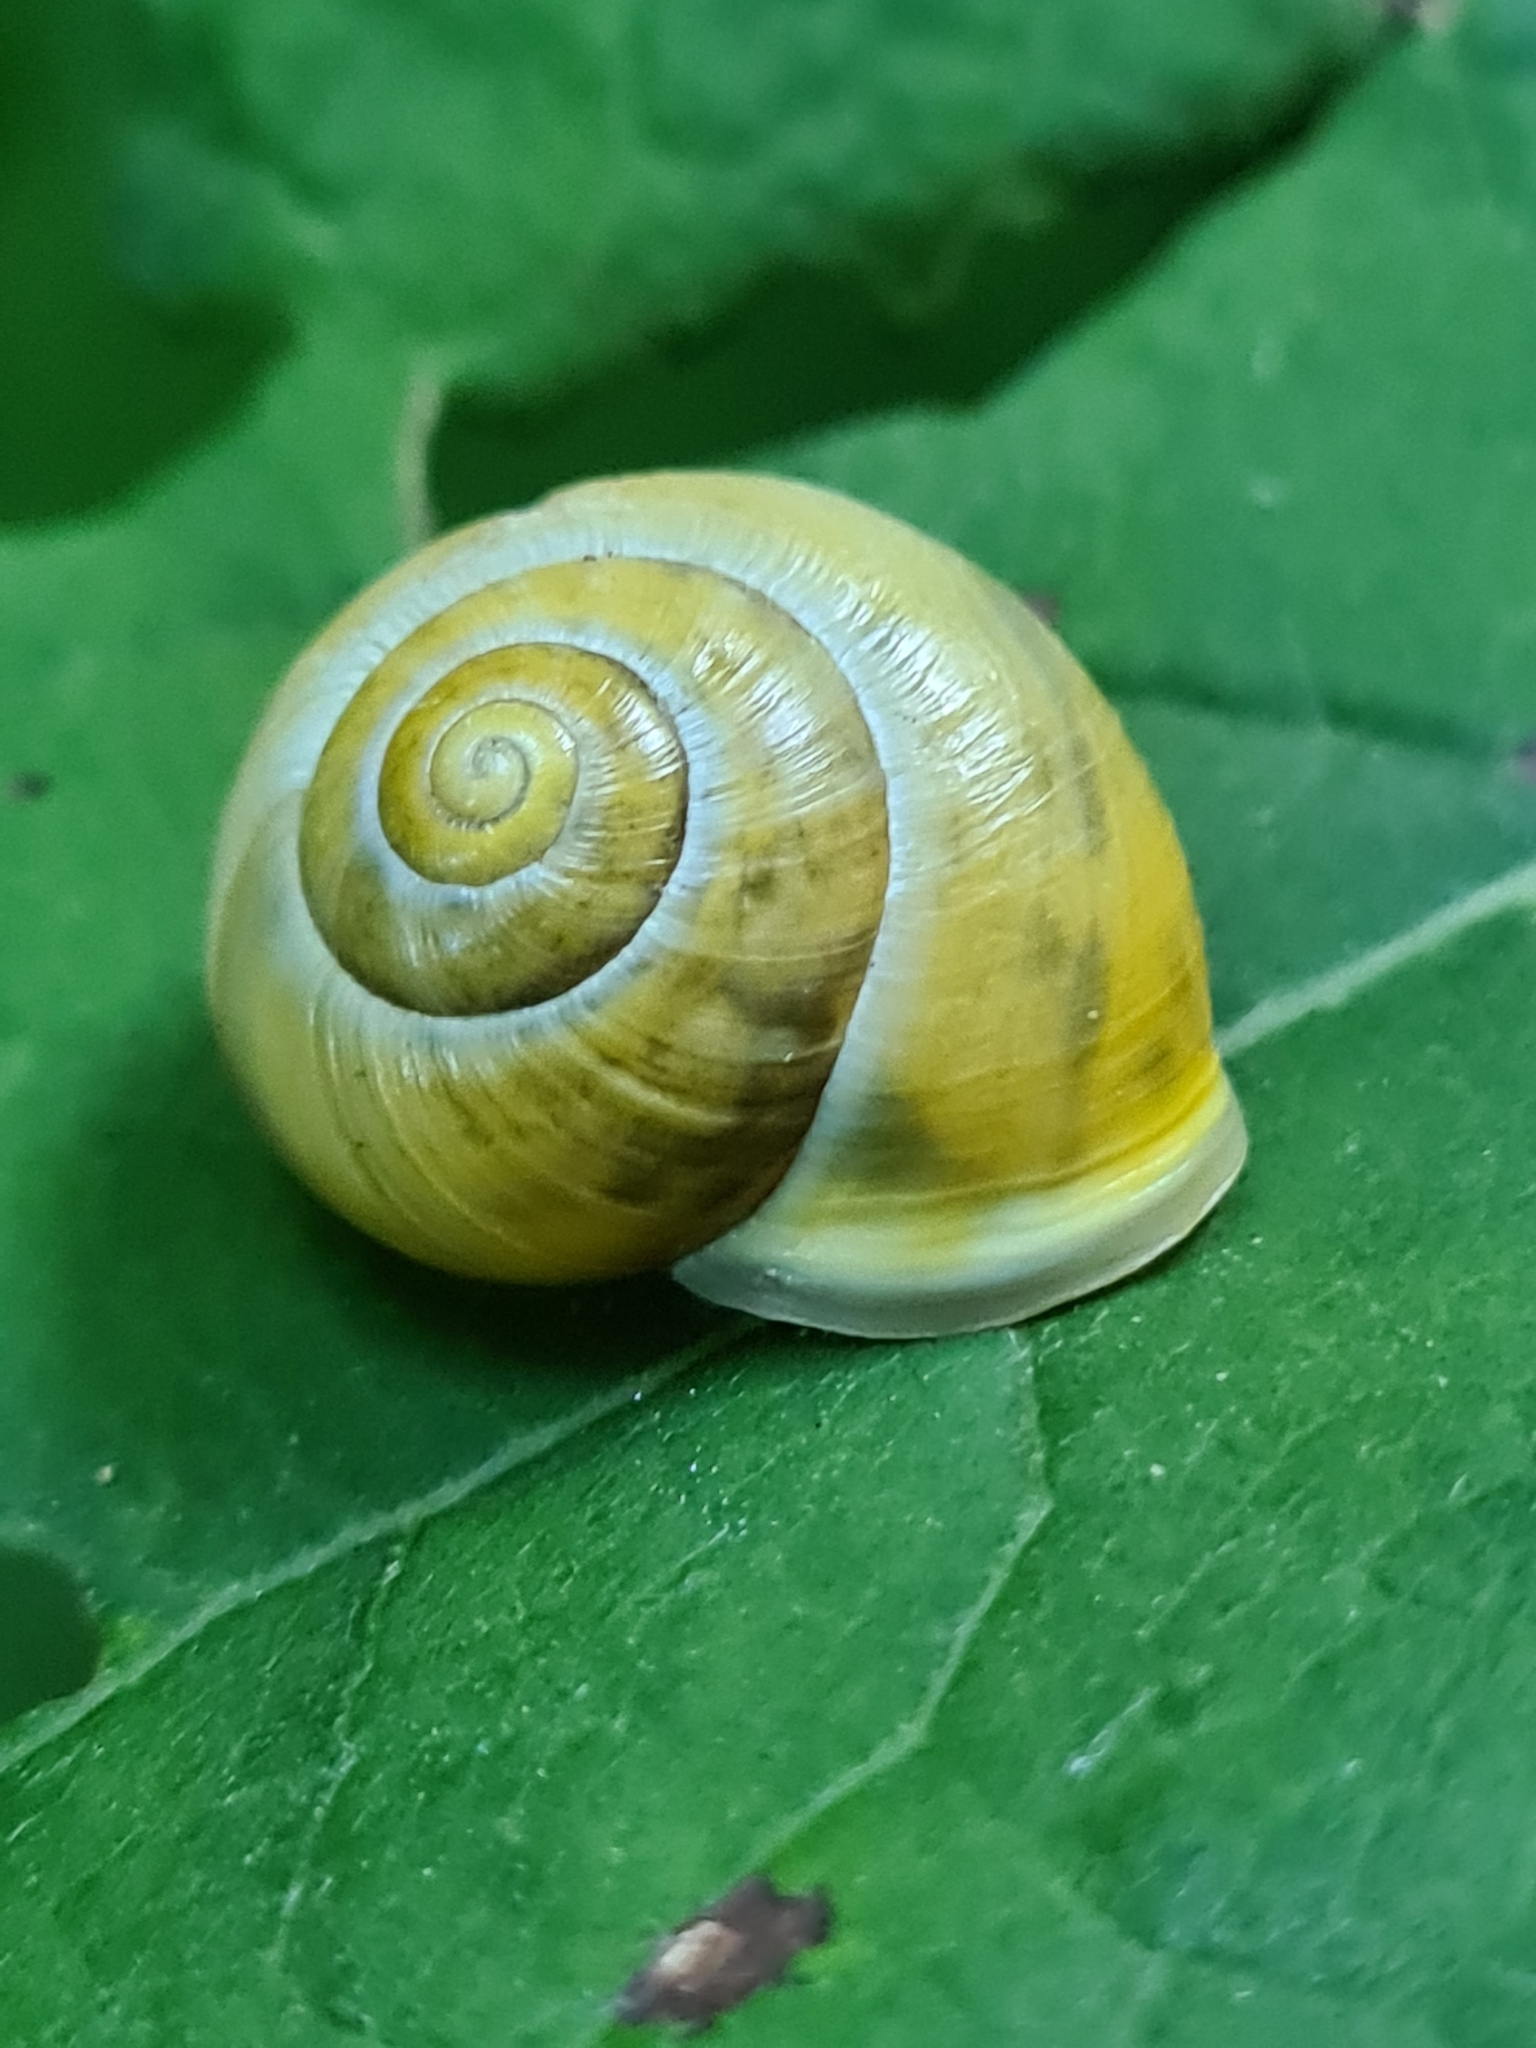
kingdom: Animalia
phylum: Mollusca
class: Gastropoda
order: Stylommatophora
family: Helicidae
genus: Cepaea
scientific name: Cepaea hortensis
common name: White-lip gardensnail
